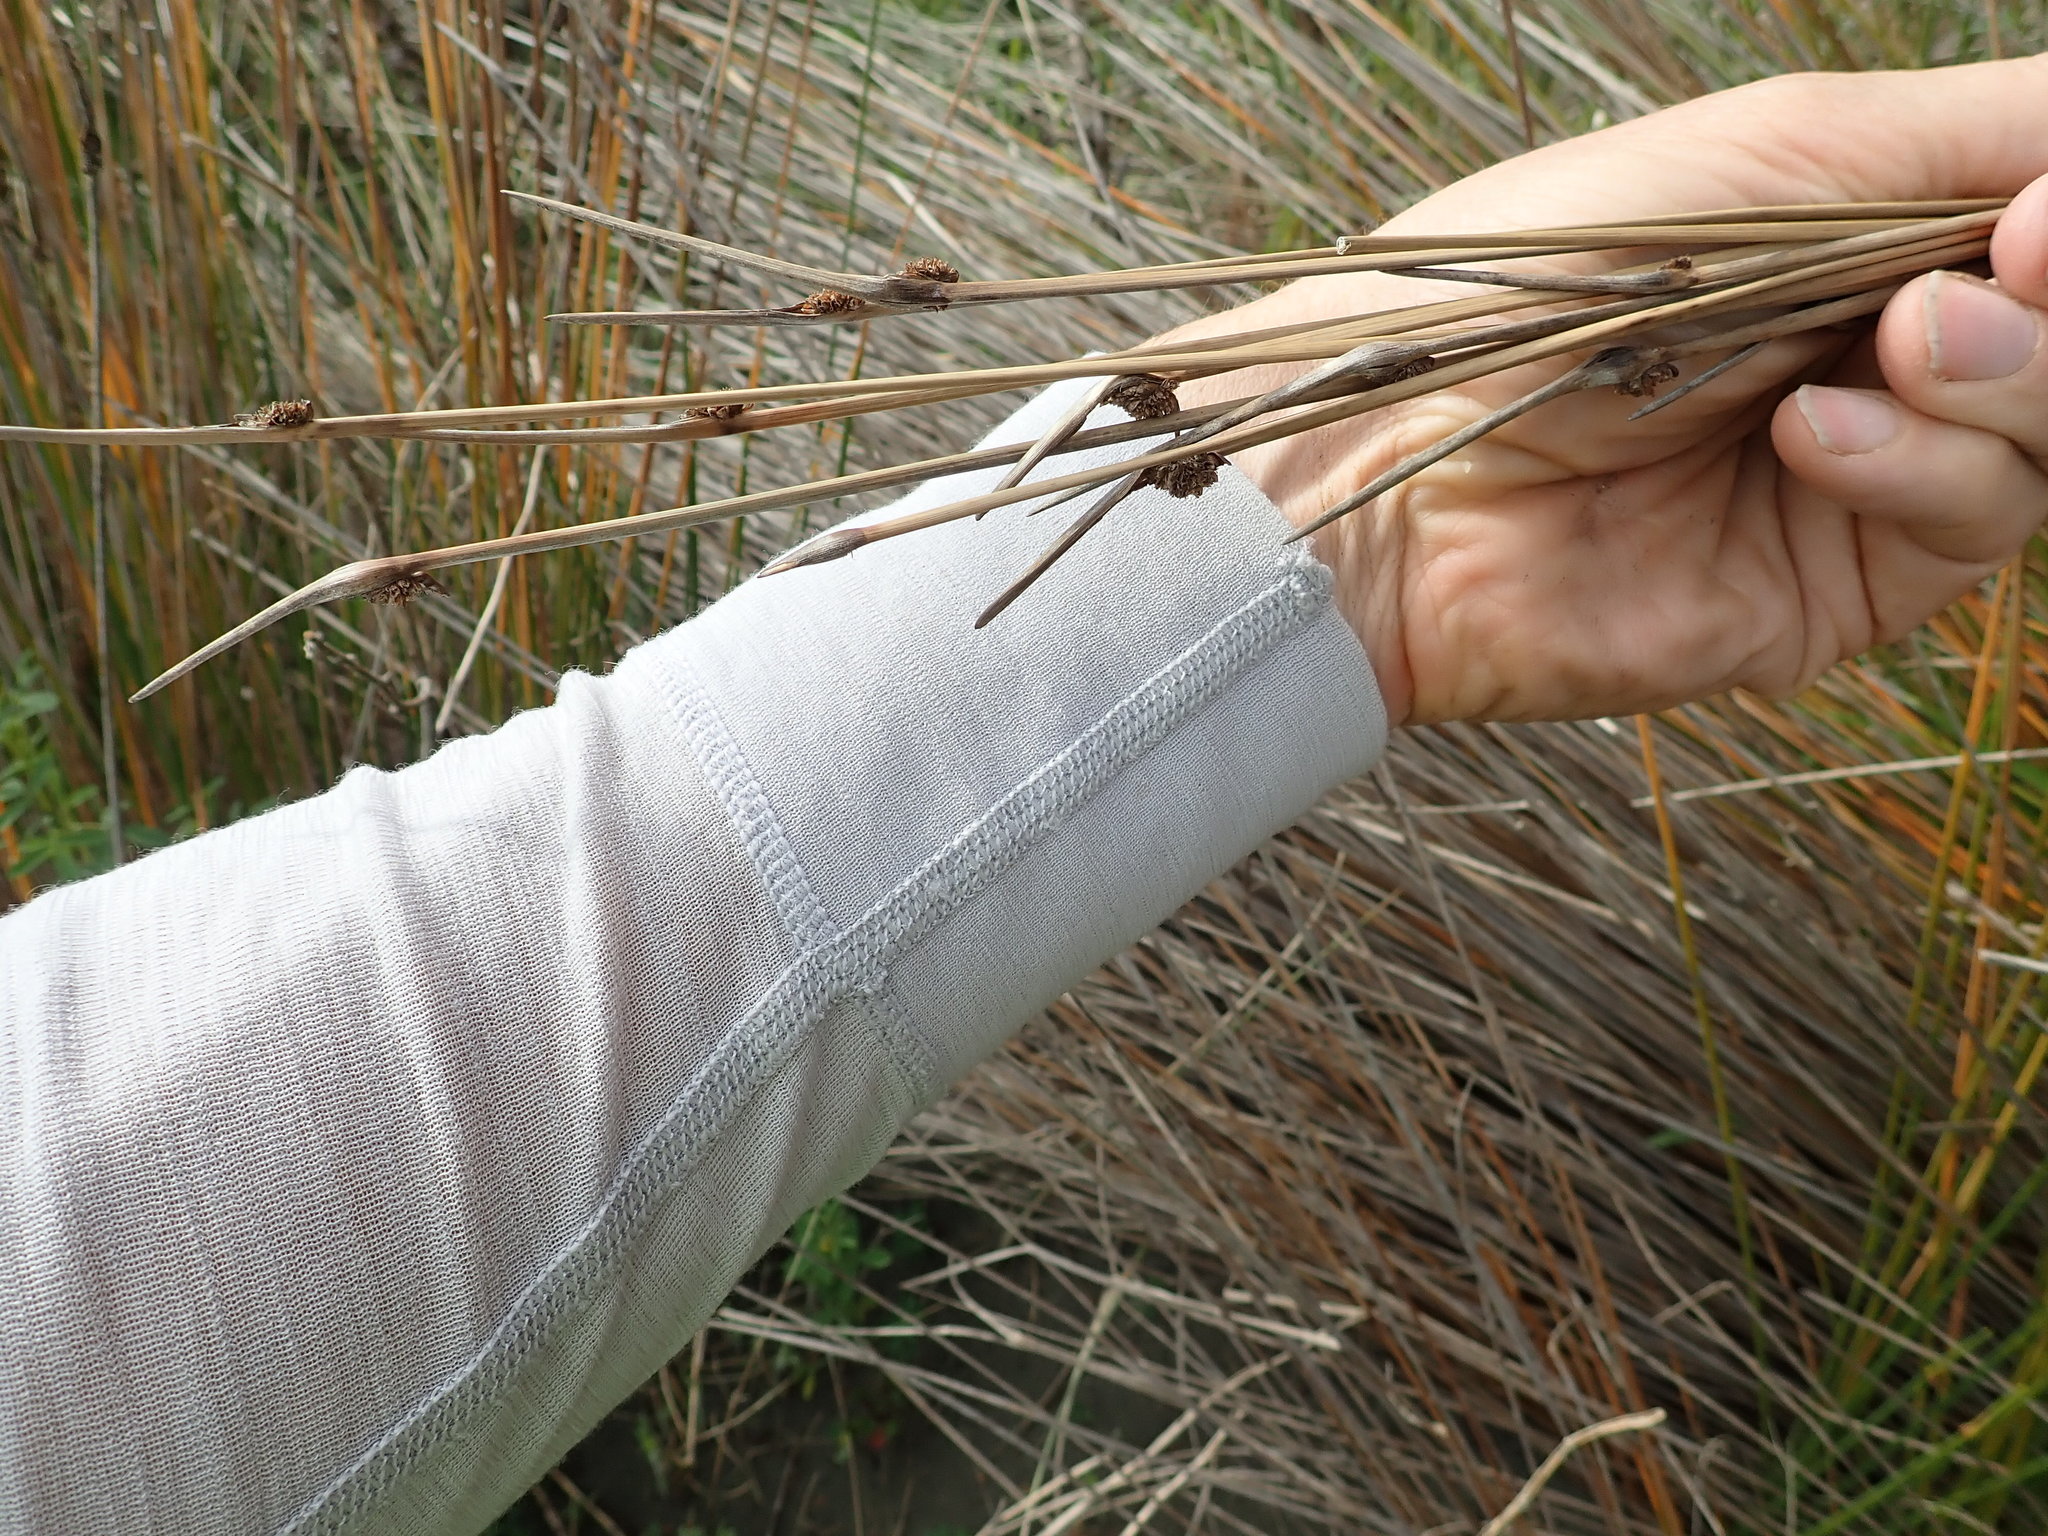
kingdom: Plantae
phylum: Tracheophyta
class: Liliopsida
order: Poales
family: Cyperaceae
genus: Ficinia
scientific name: Ficinia nodosa
